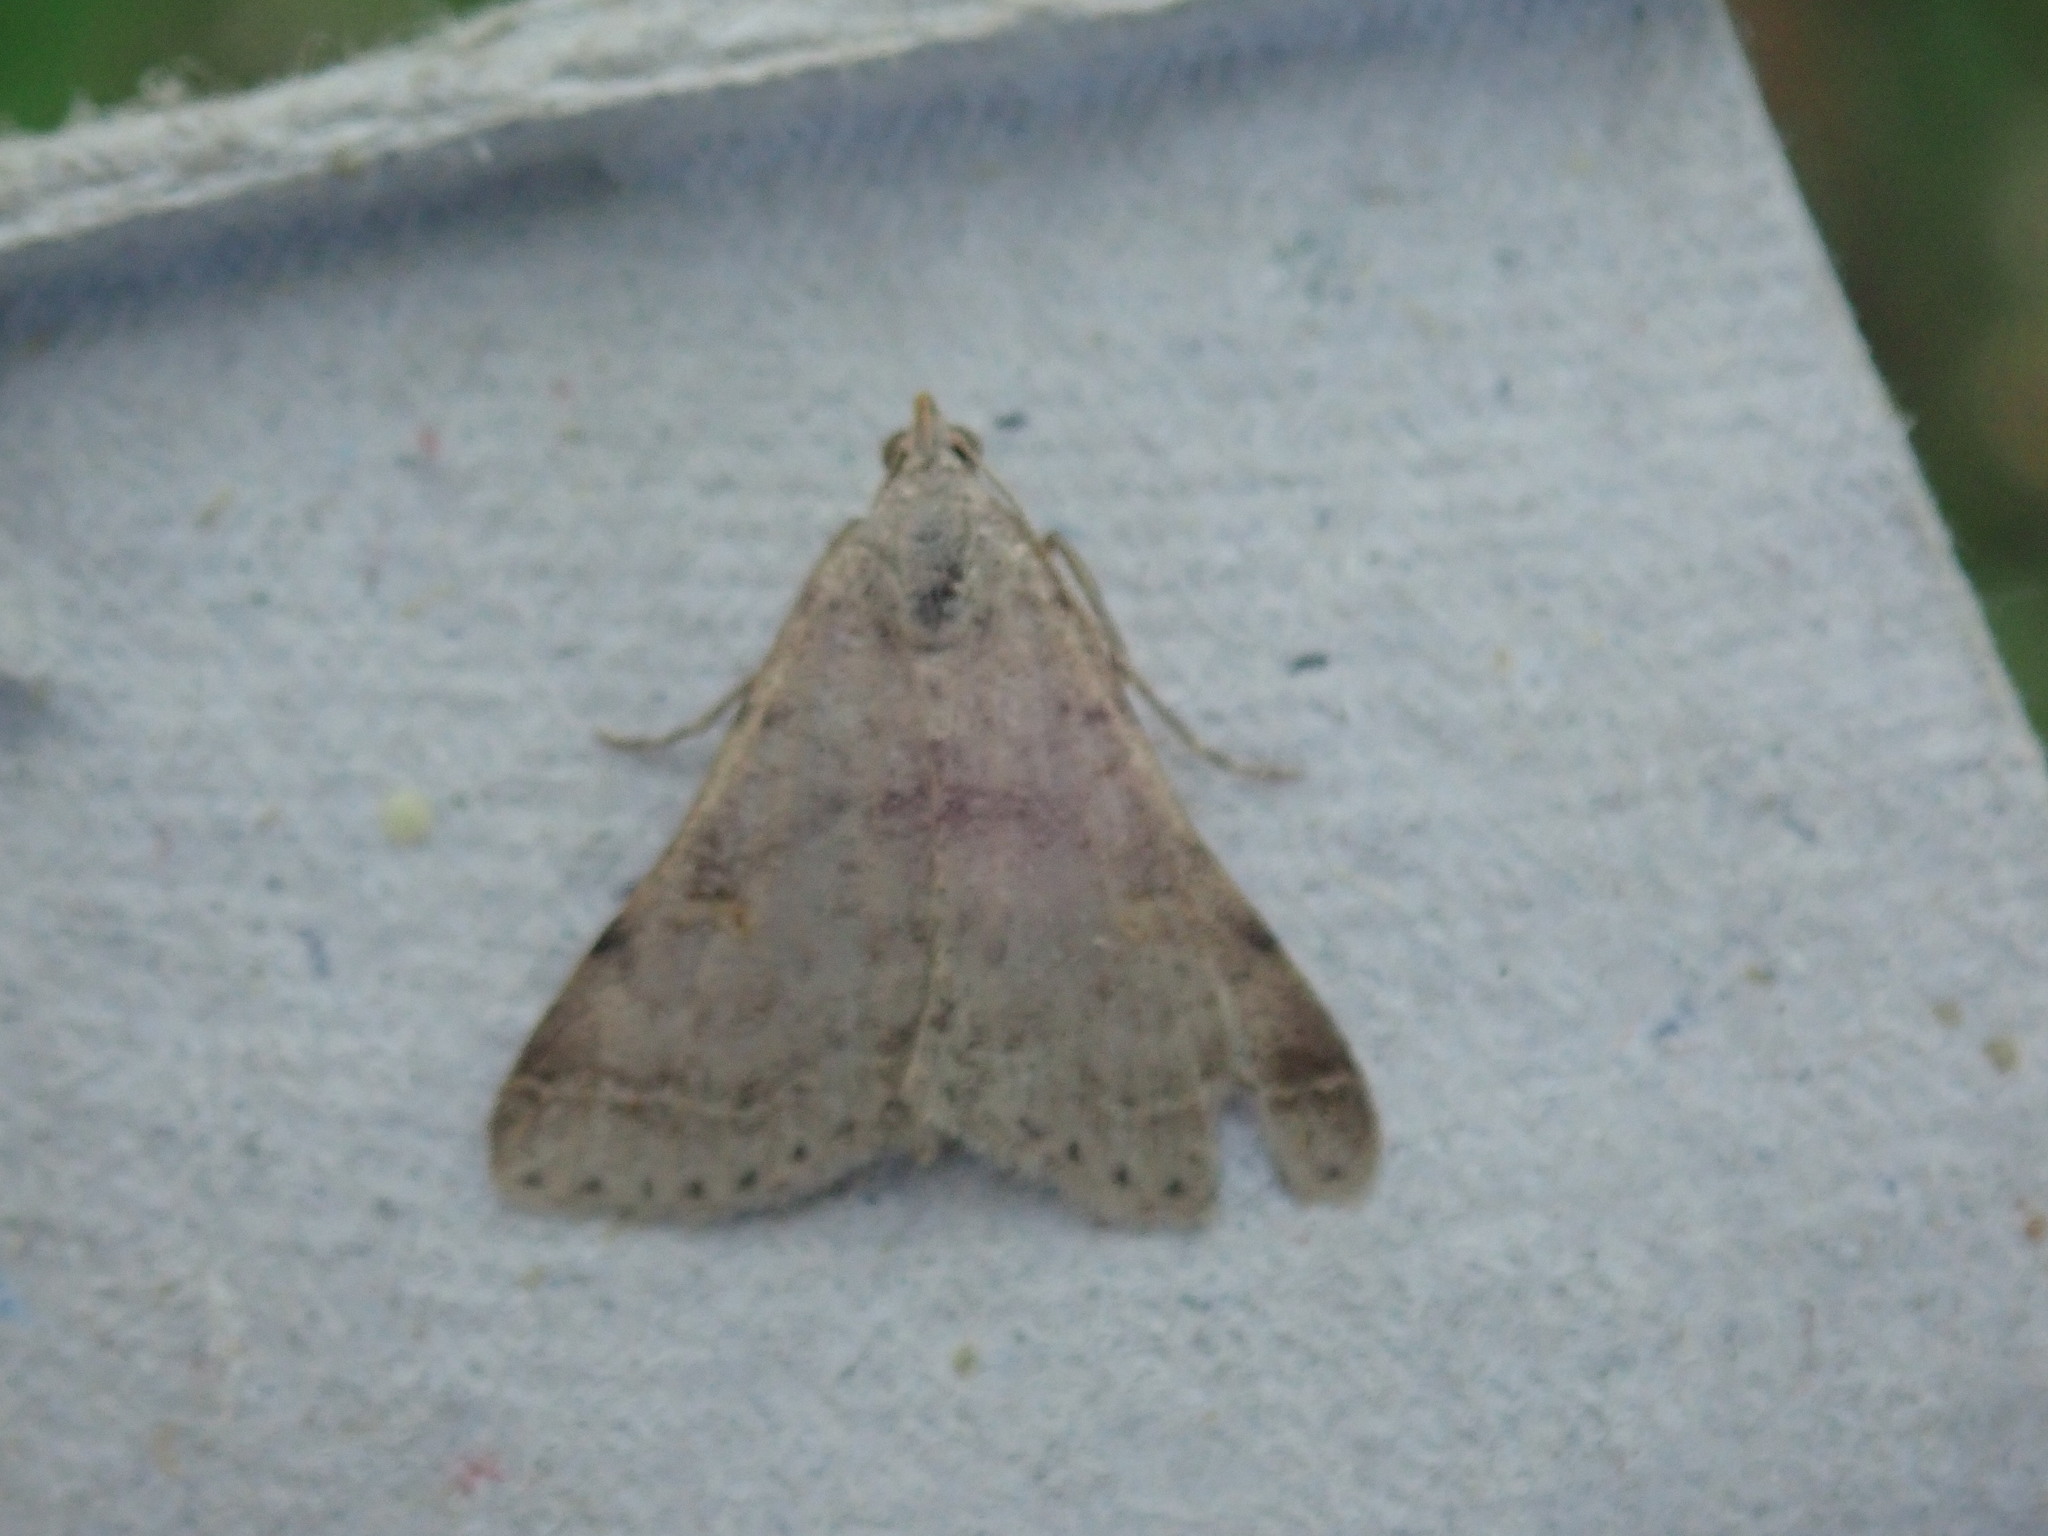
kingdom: Animalia
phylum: Arthropoda
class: Insecta
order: Lepidoptera
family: Erebidae
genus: Bleptina
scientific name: Bleptina caradrinalis
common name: Bent-winged owlet
